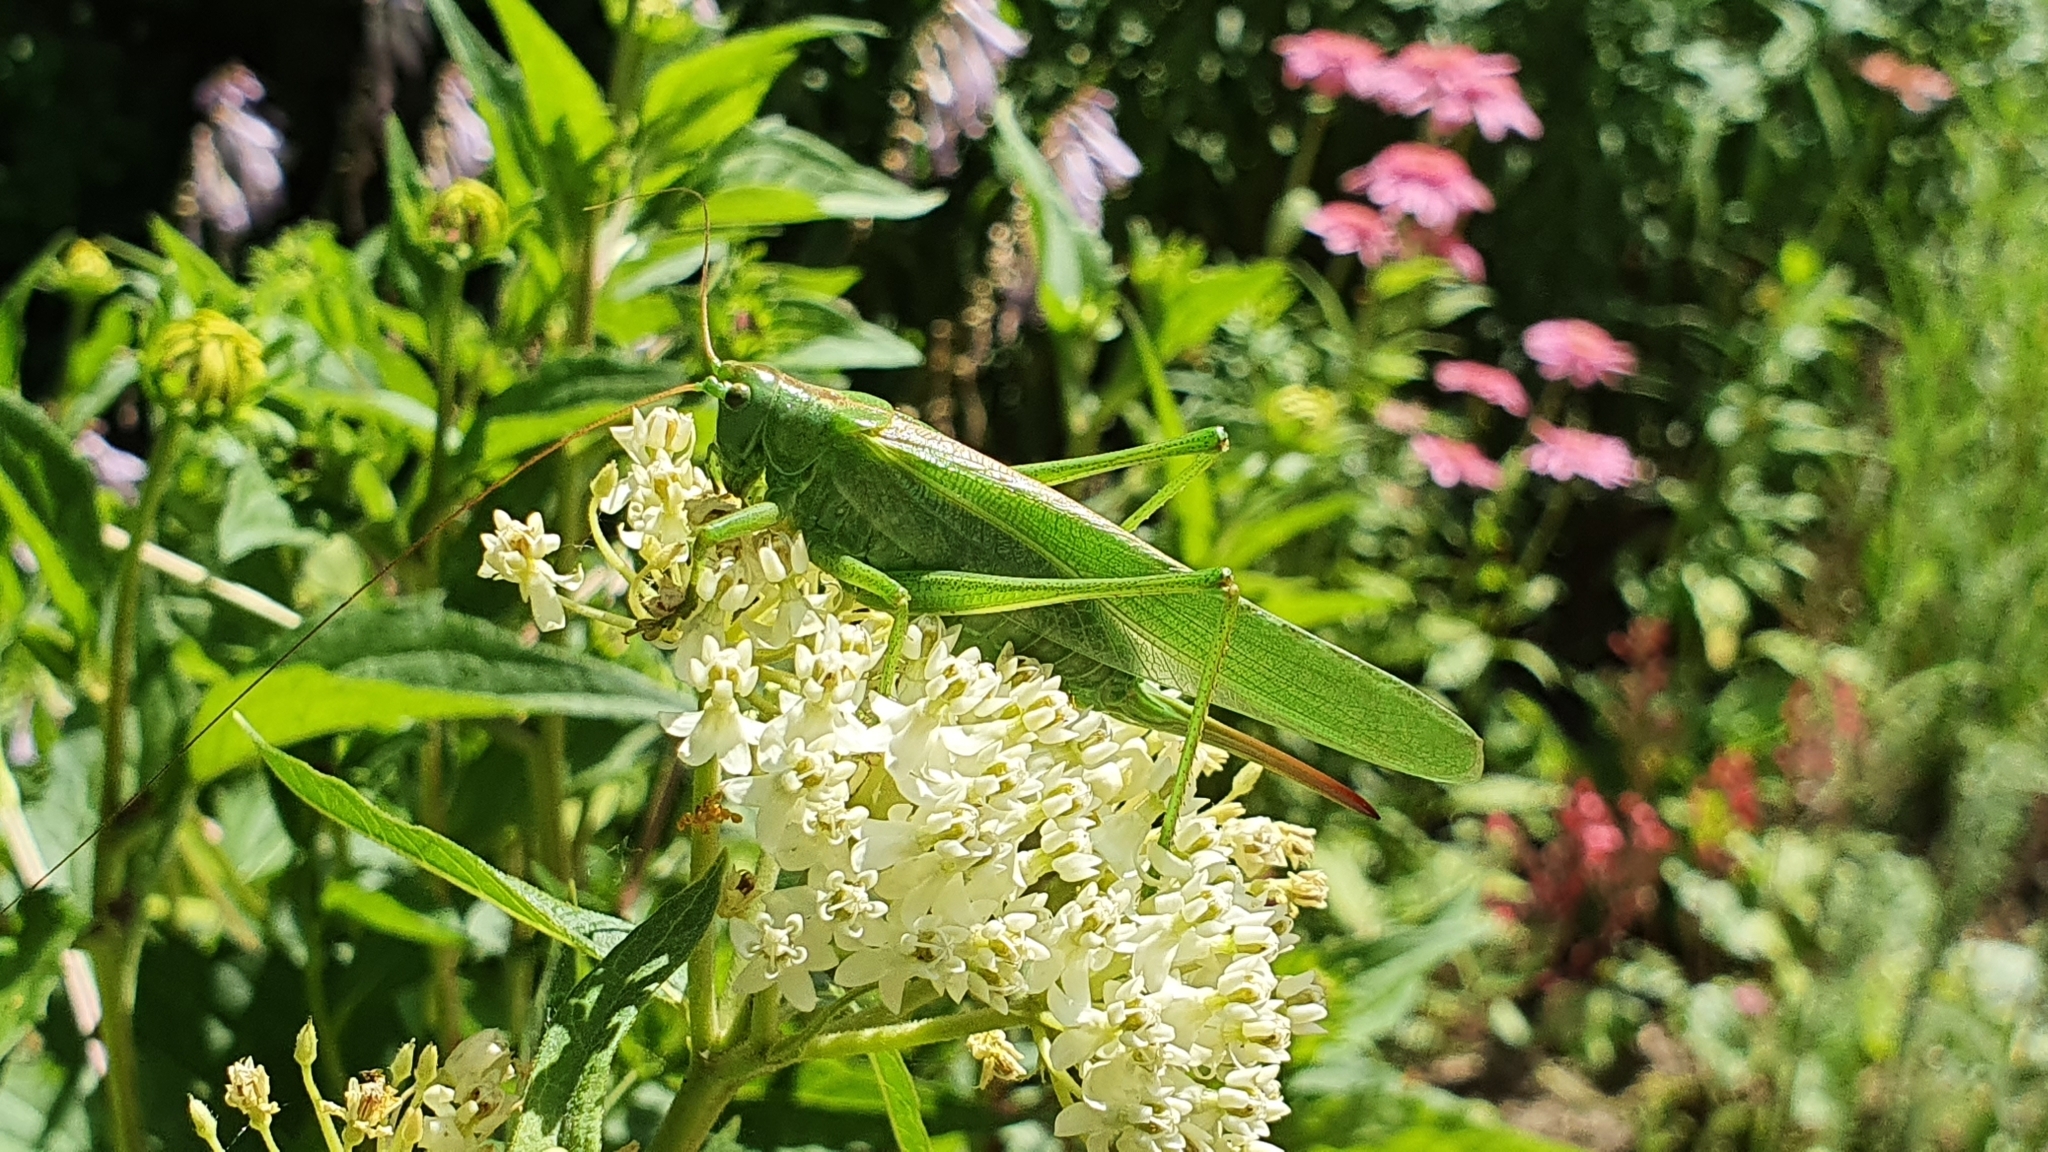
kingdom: Animalia
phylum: Arthropoda
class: Insecta
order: Orthoptera
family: Tettigoniidae
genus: Tettigonia
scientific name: Tettigonia viridissima
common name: Great green bush-cricket
